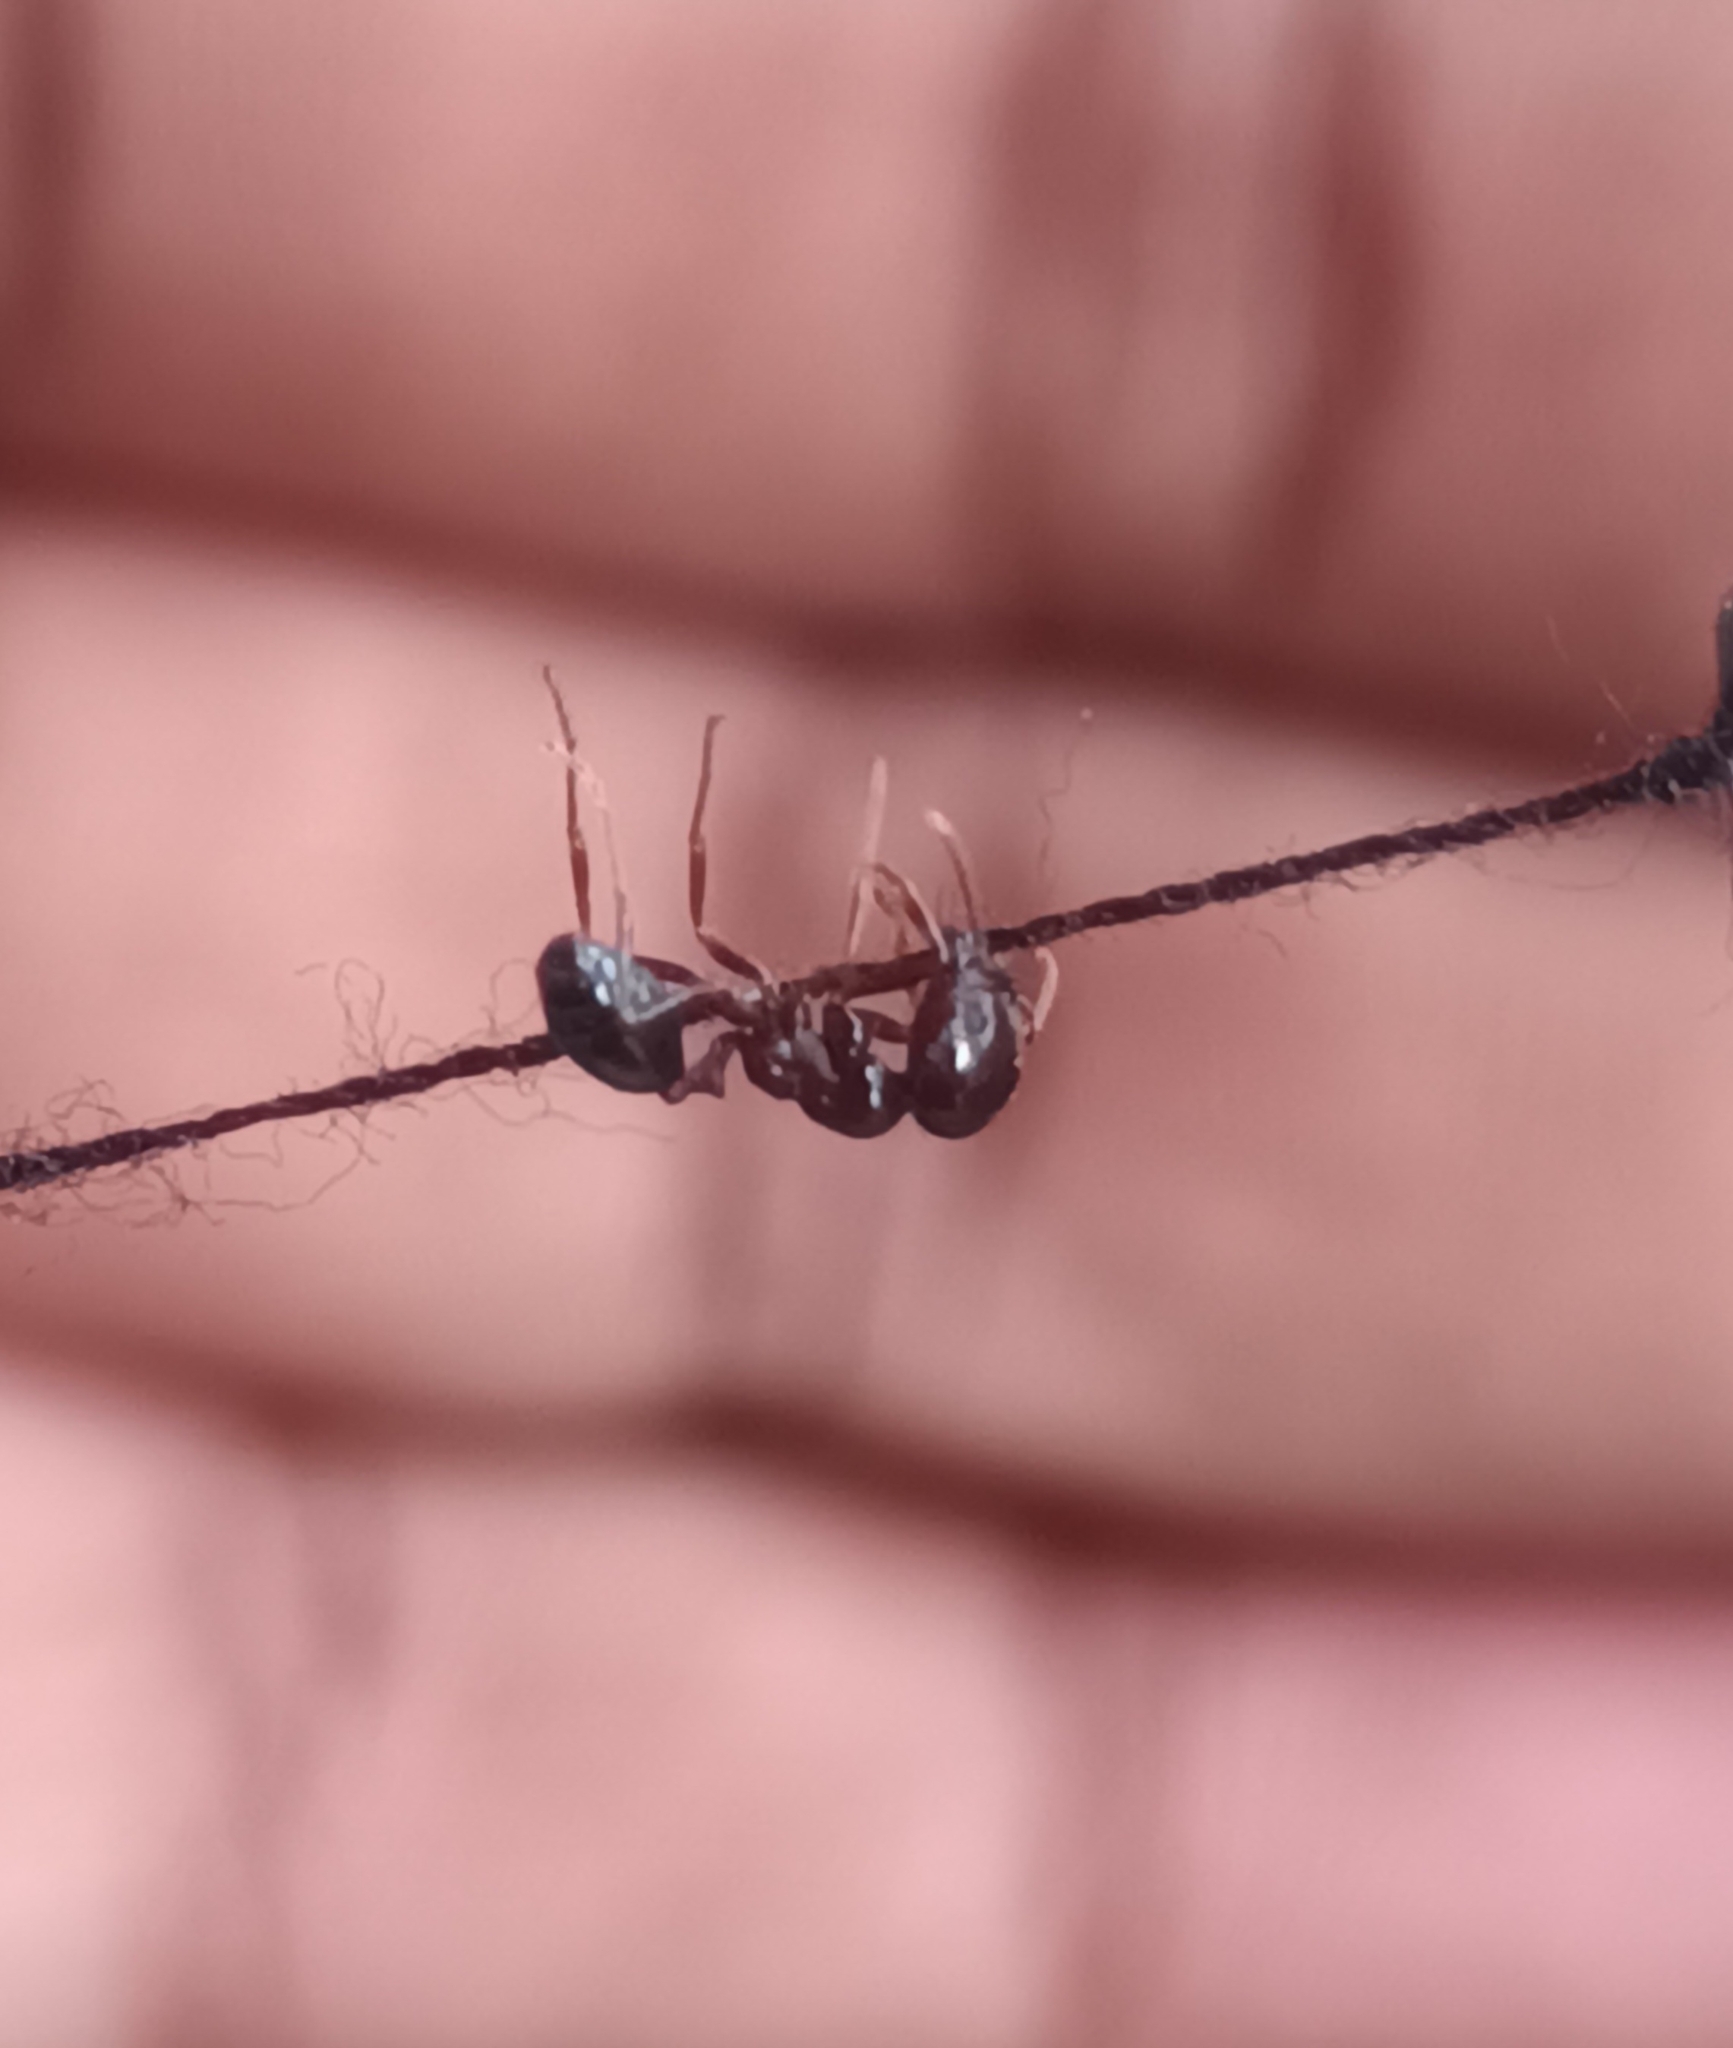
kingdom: Animalia
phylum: Arthropoda
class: Insecta
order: Hymenoptera
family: Formicidae
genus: Trichomyrmex
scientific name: Trichomyrmex
